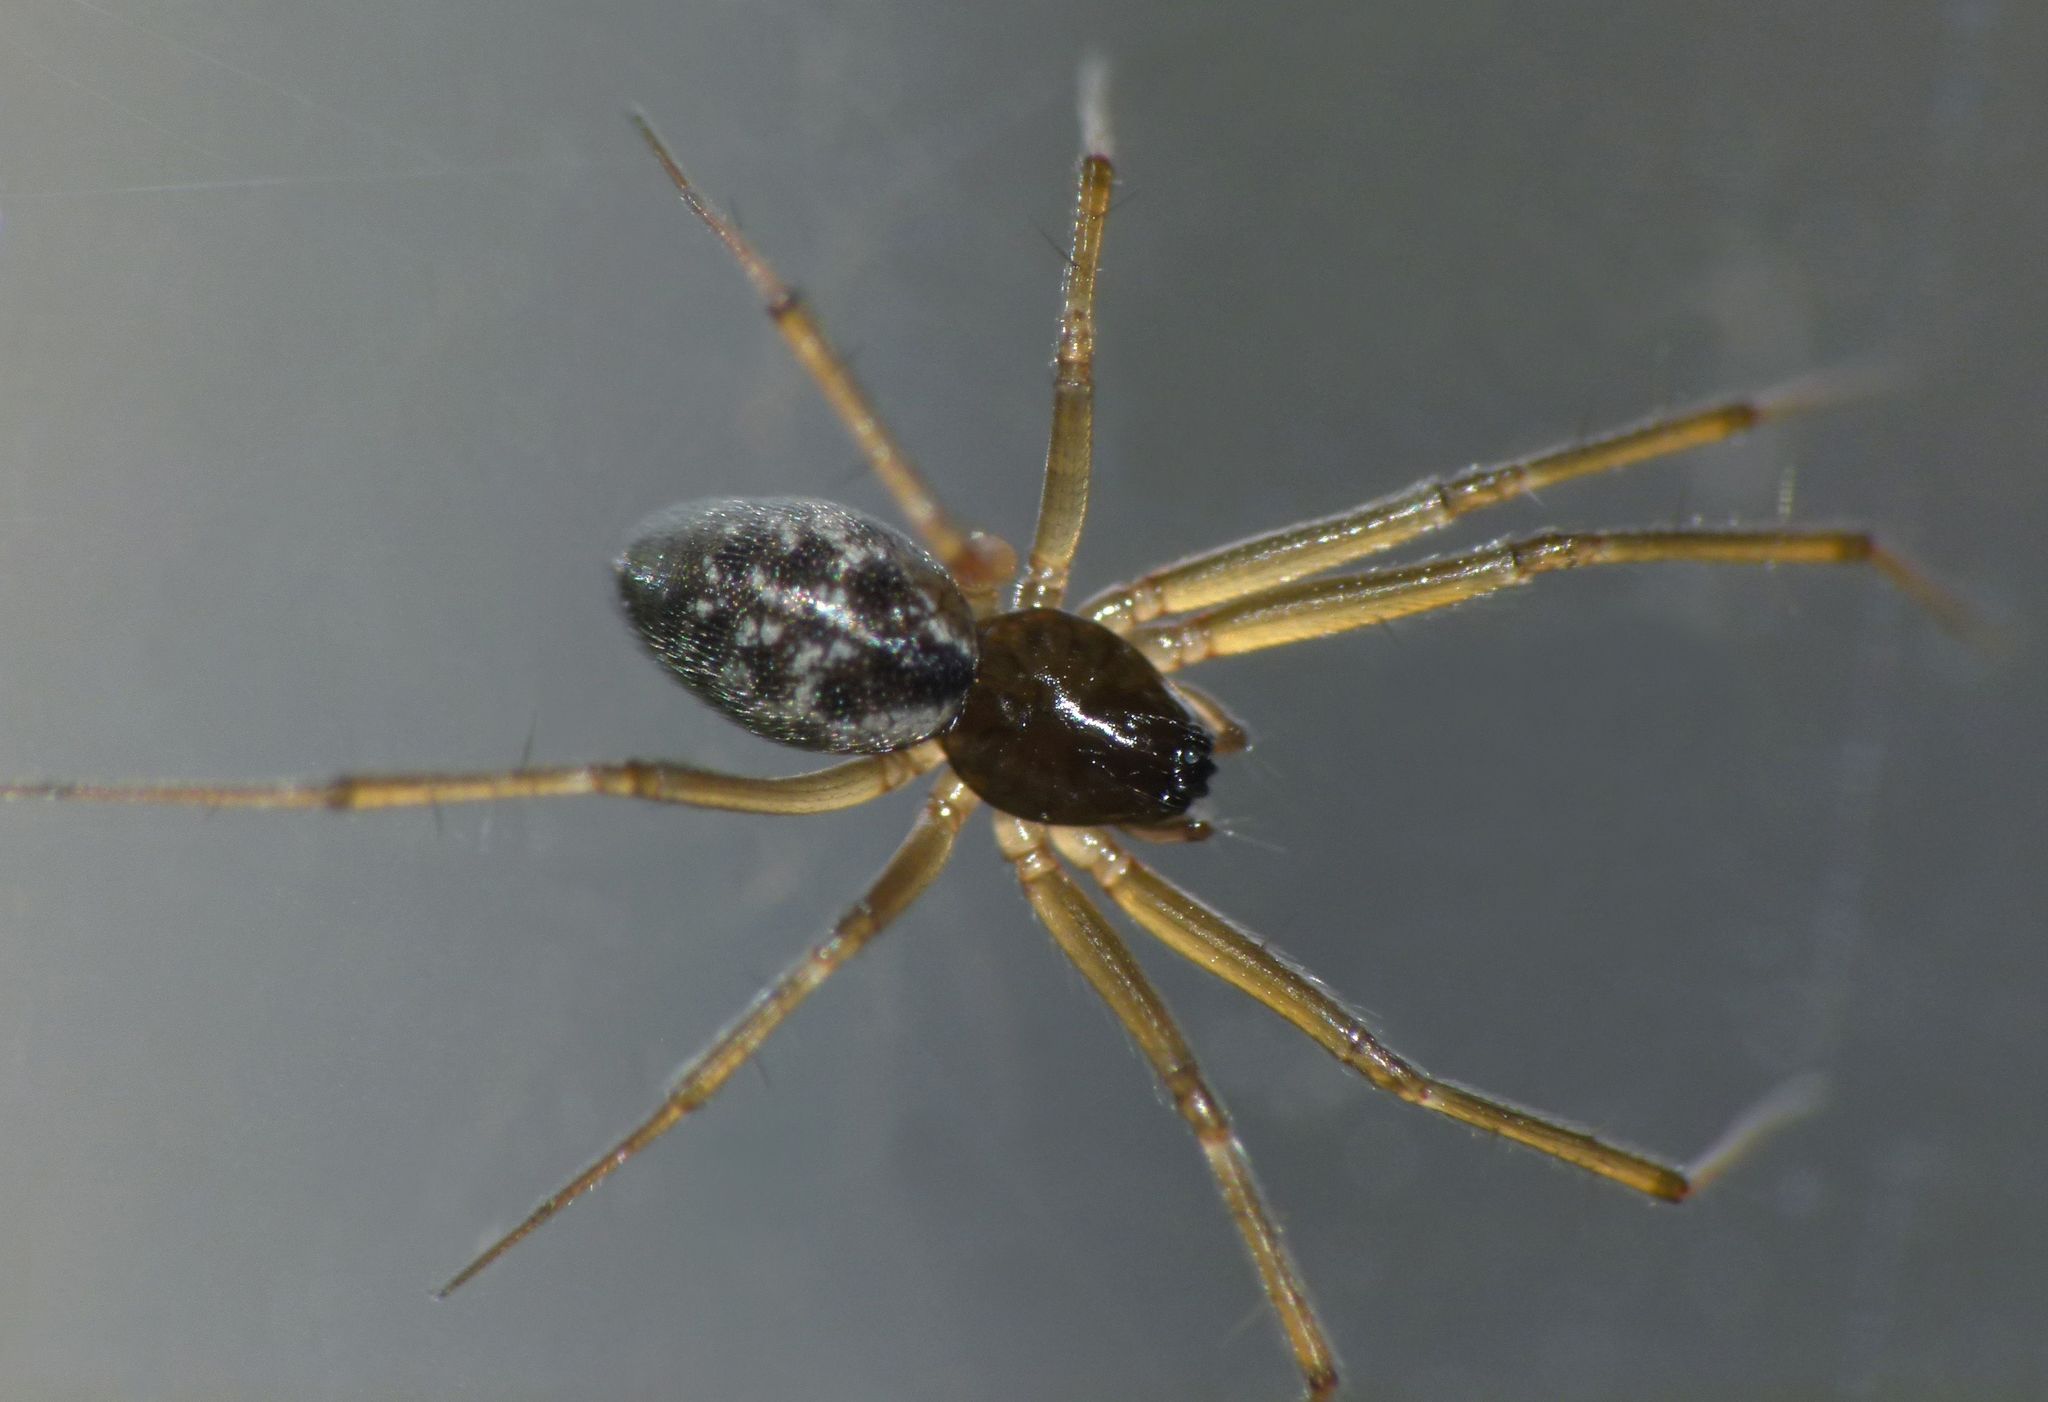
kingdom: Animalia
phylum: Arthropoda
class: Arachnida
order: Araneae
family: Linyphiidae
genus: Tenuiphantes
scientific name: Tenuiphantes tenuis
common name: Dwarf weaver
